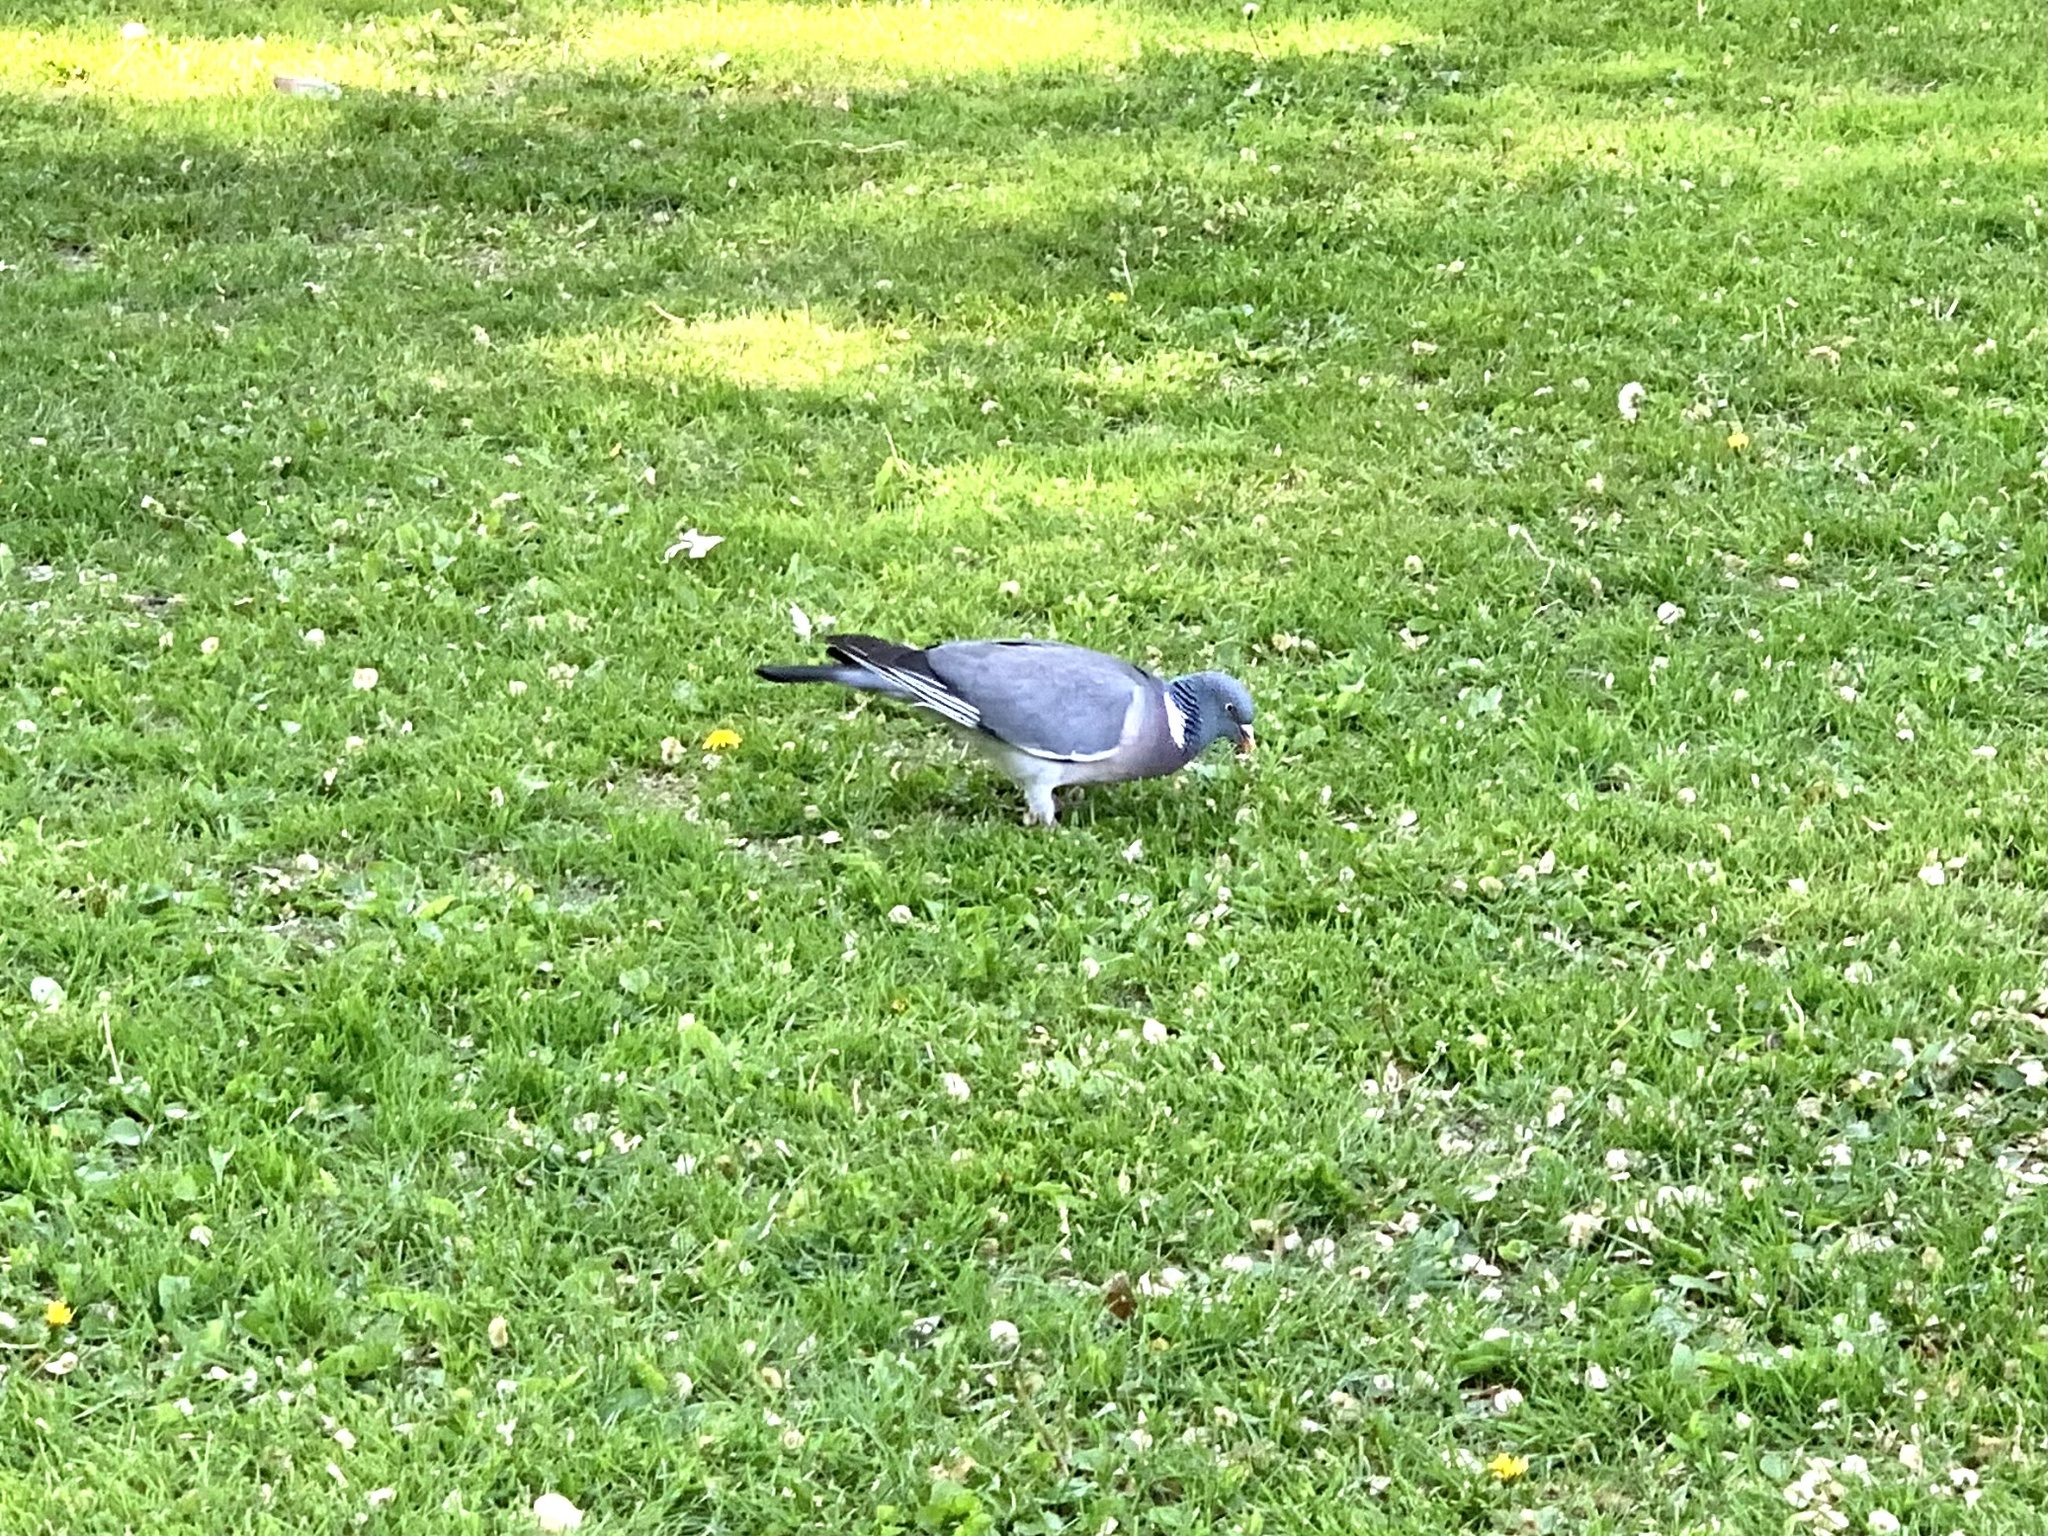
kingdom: Animalia
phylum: Chordata
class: Aves
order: Columbiformes
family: Columbidae
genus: Columba
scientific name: Columba palumbus
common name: Common wood pigeon
